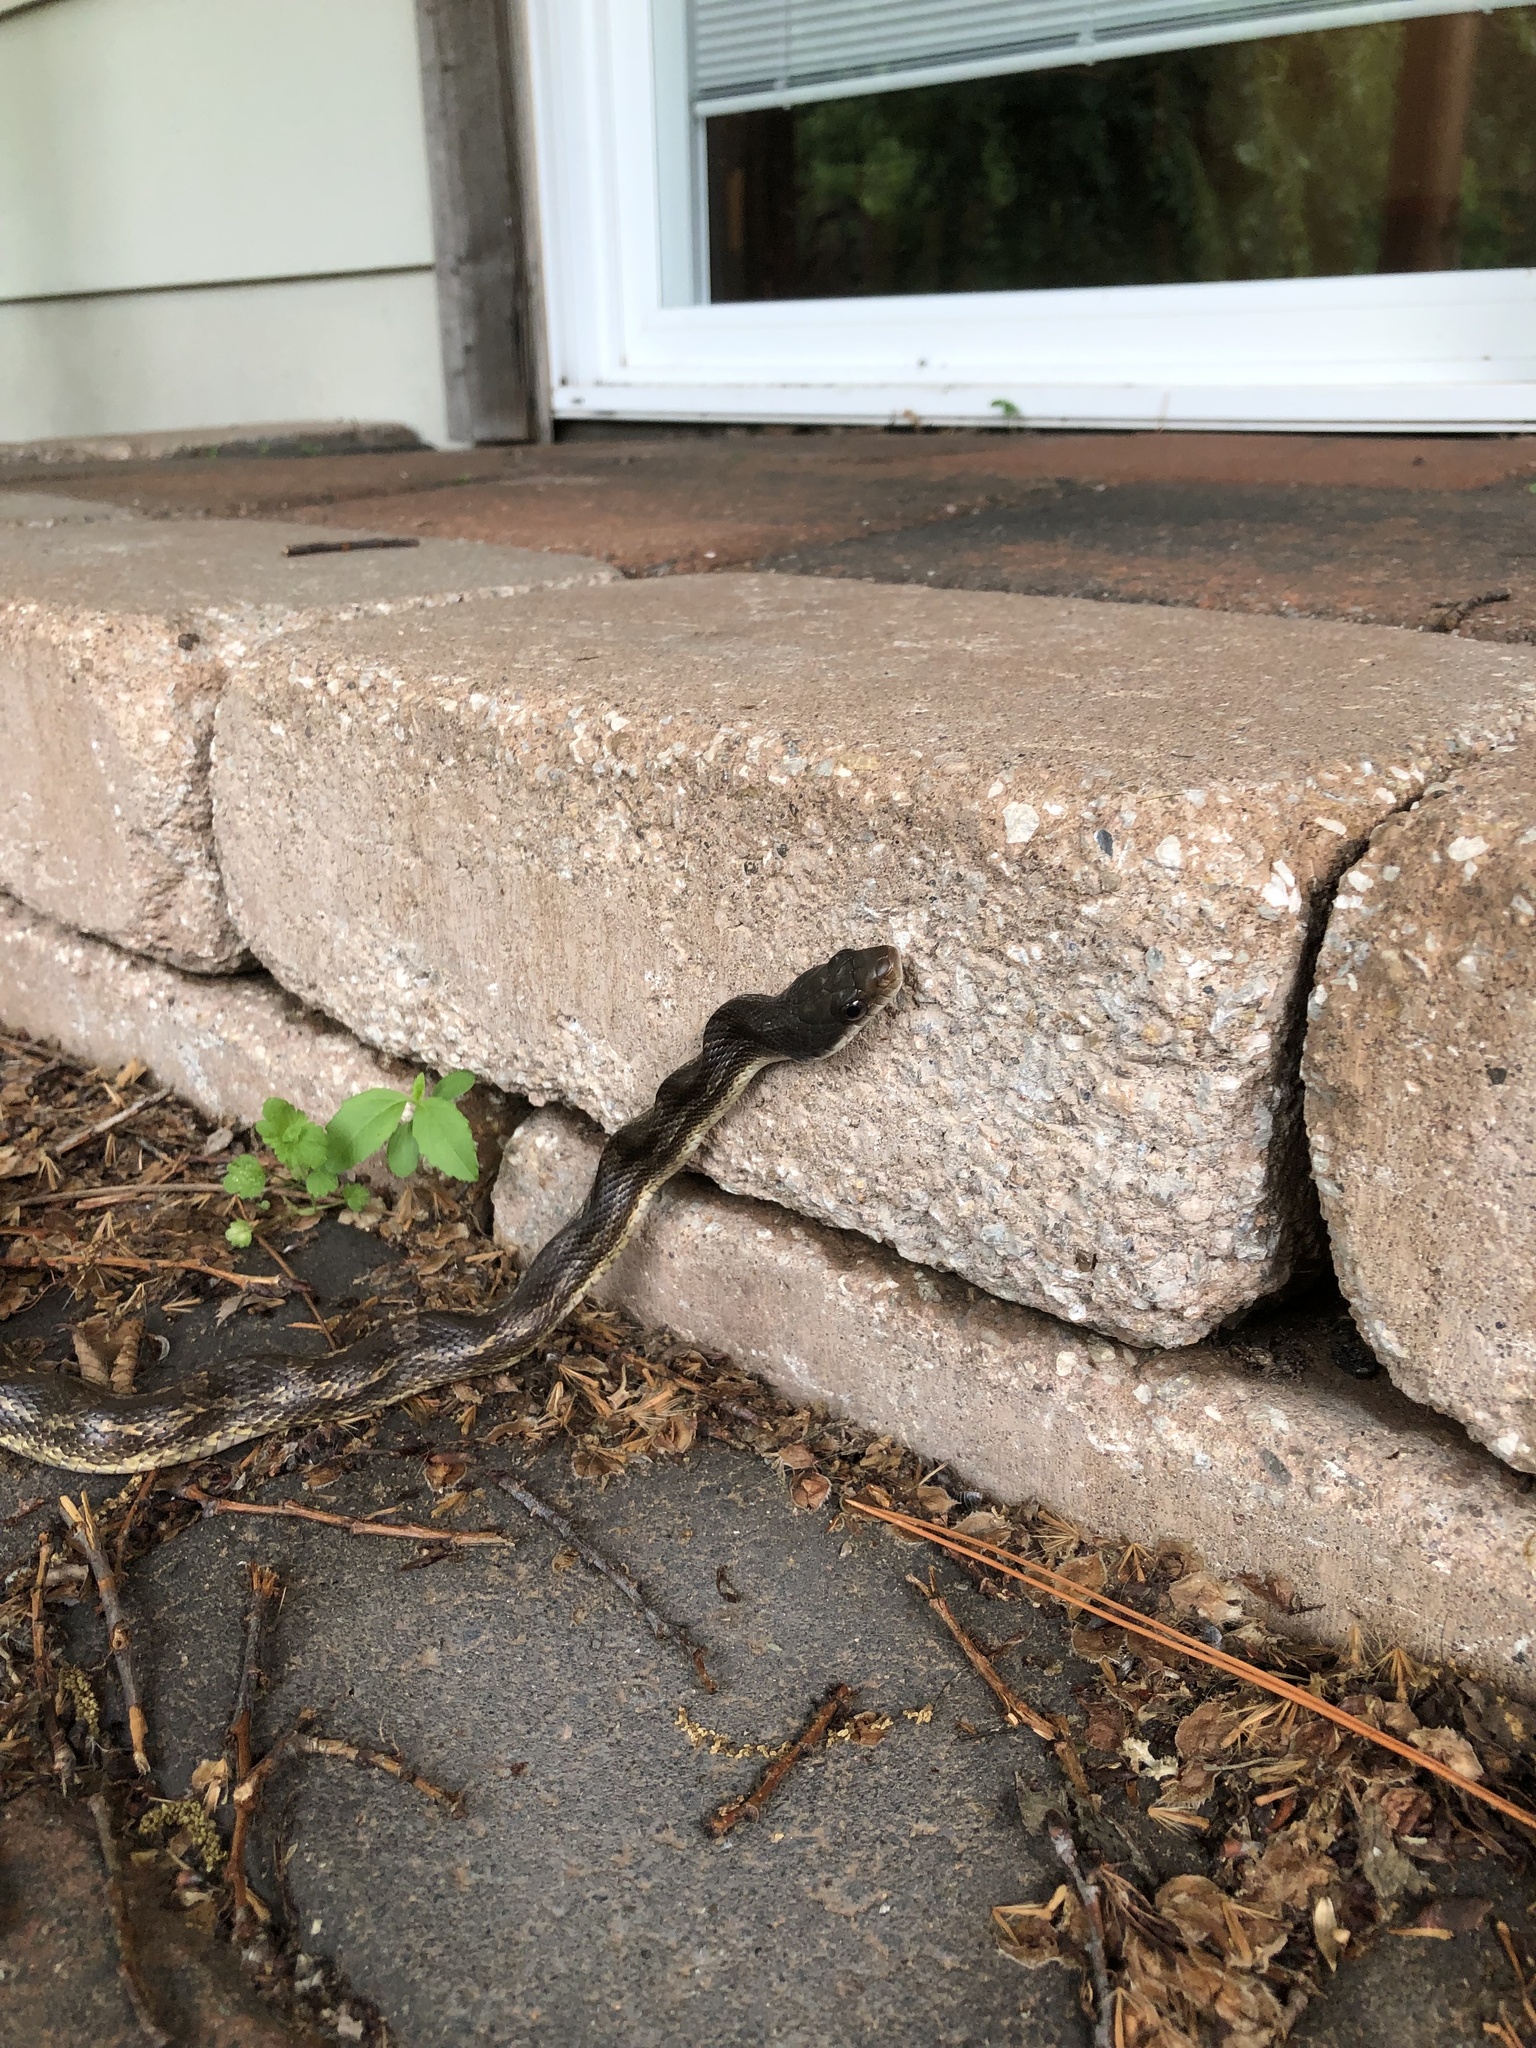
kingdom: Animalia
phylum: Chordata
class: Squamata
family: Colubridae
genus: Pantherophis
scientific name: Pantherophis obsoletus
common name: Black rat snake
